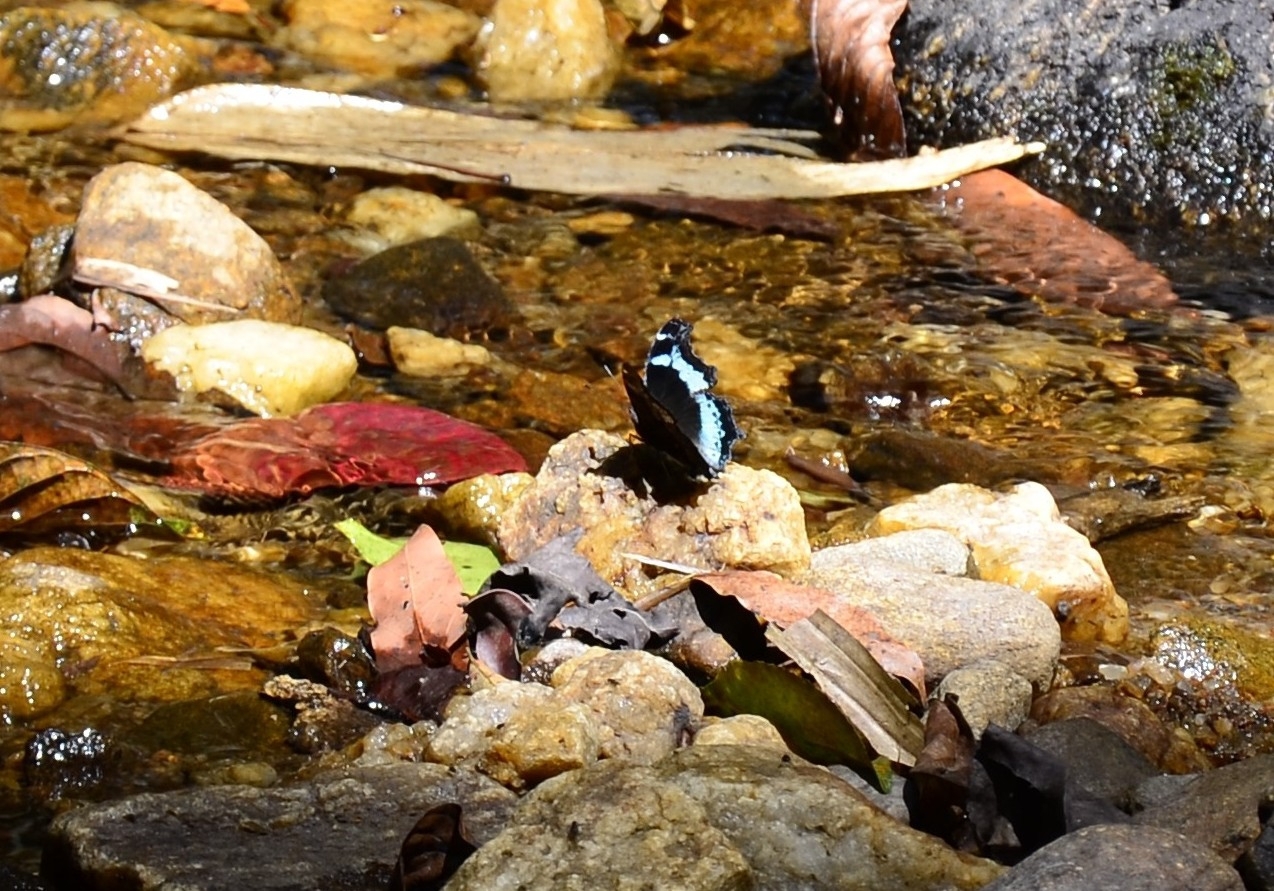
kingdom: Animalia
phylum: Arthropoda
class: Insecta
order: Lepidoptera
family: Nymphalidae
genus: Vanessa
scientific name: Vanessa Kaniska canace
